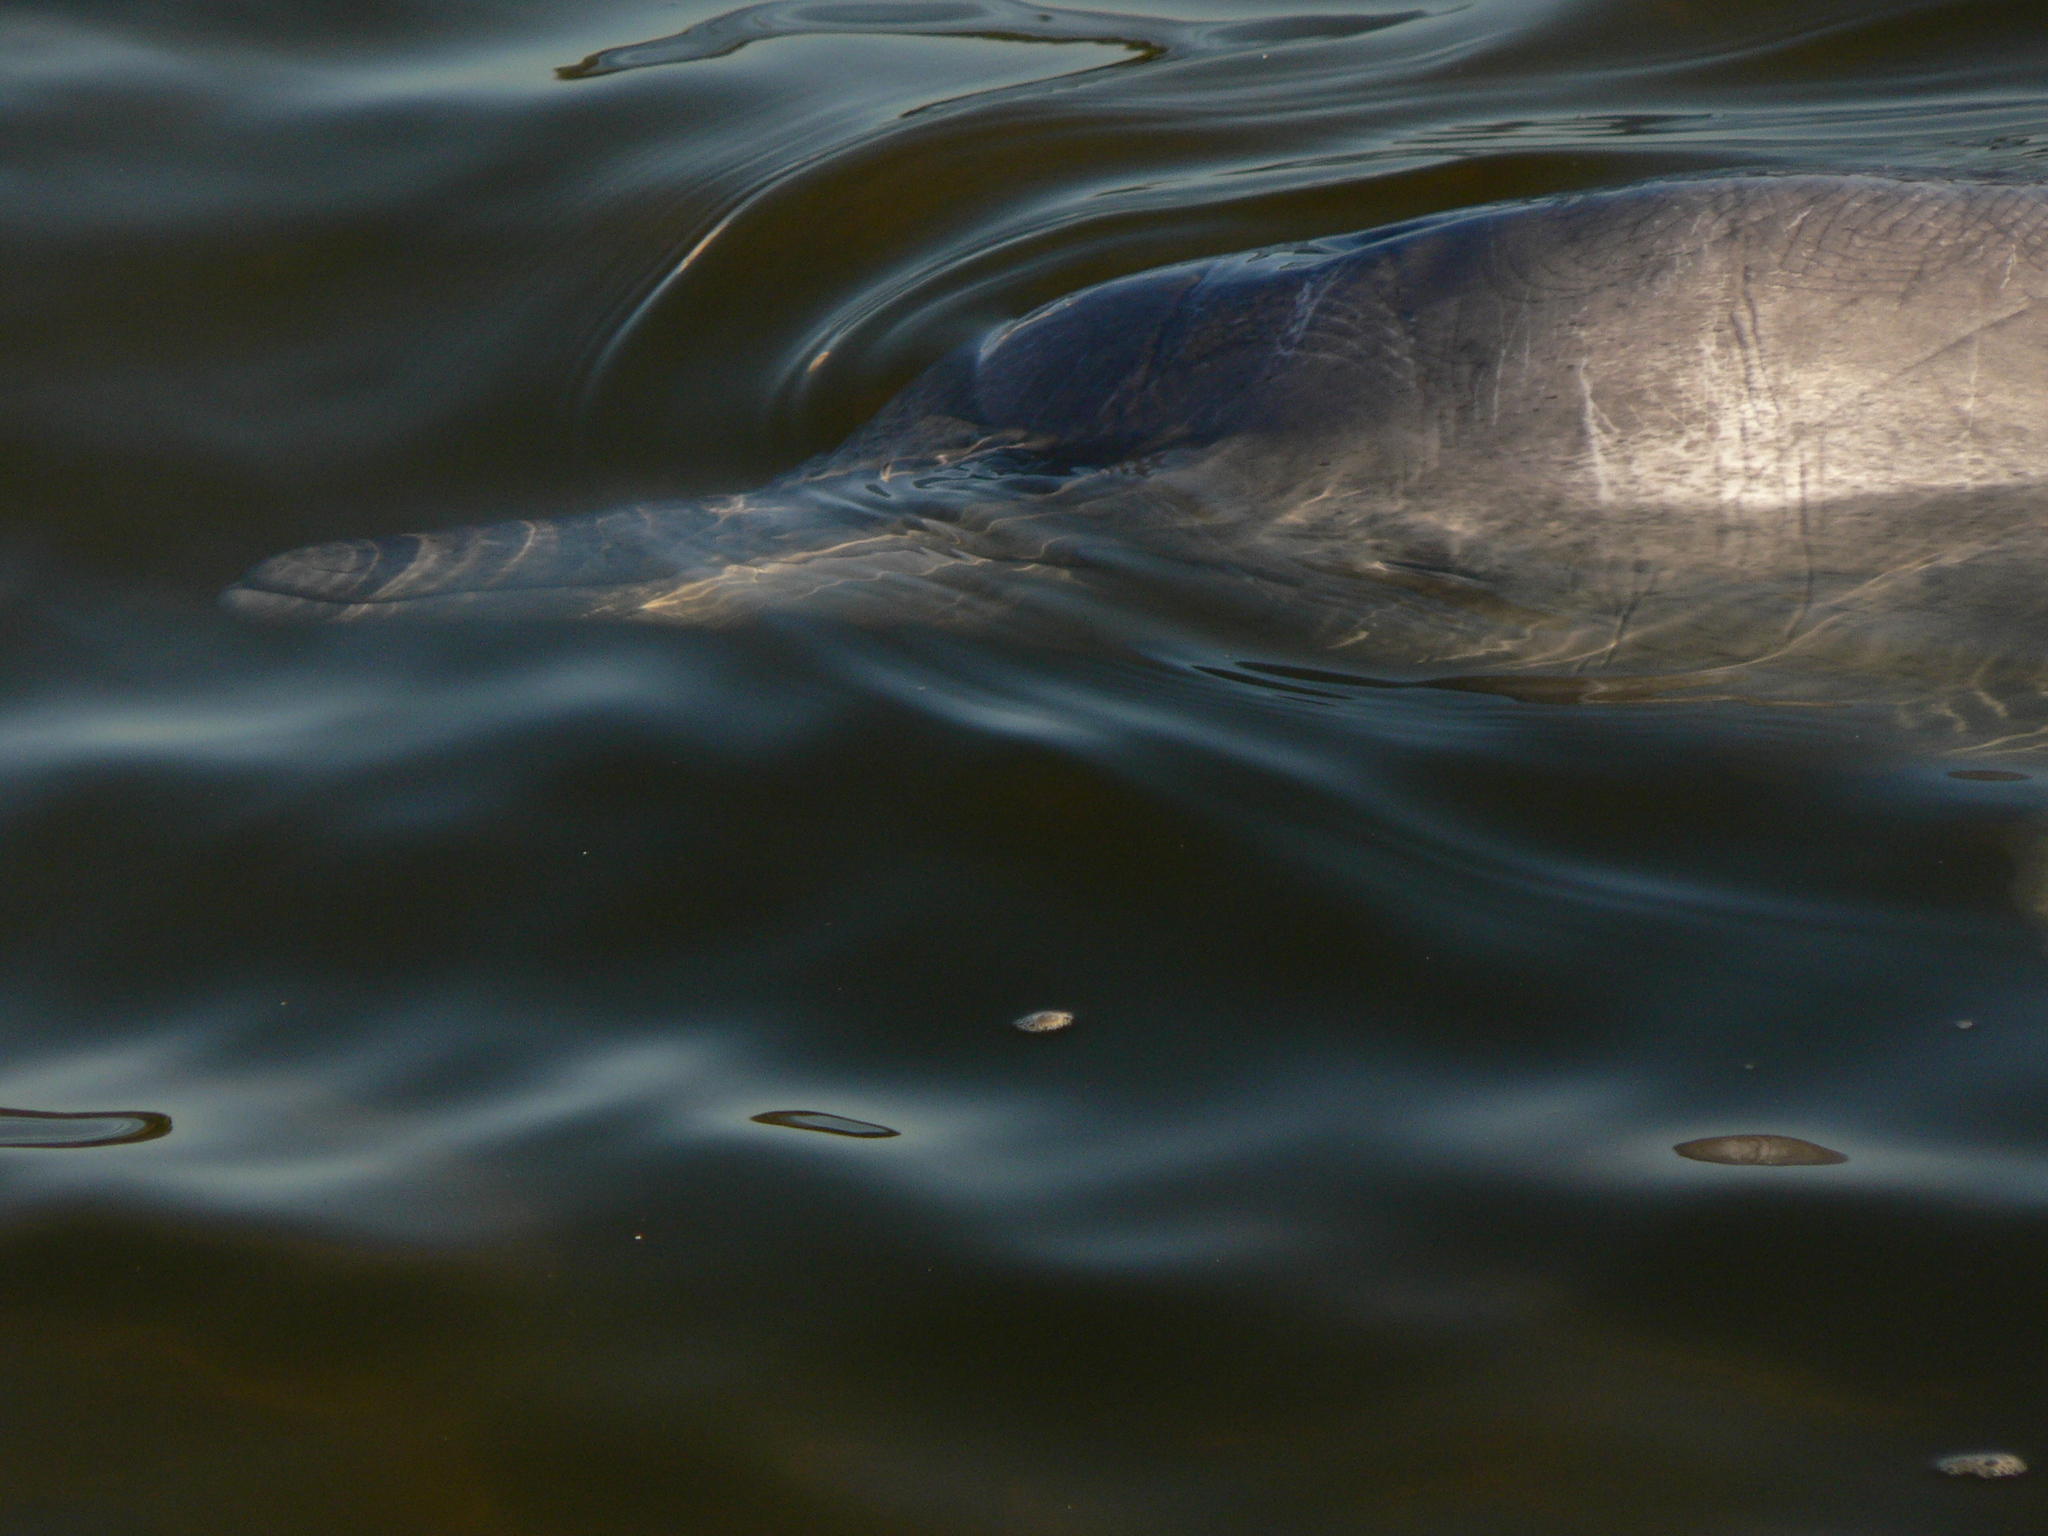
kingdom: Animalia
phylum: Chordata
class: Mammalia
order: Cetacea
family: Delphinidae
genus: Sousa
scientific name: Sousa sahulensis
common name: Australian humpback dolphin
